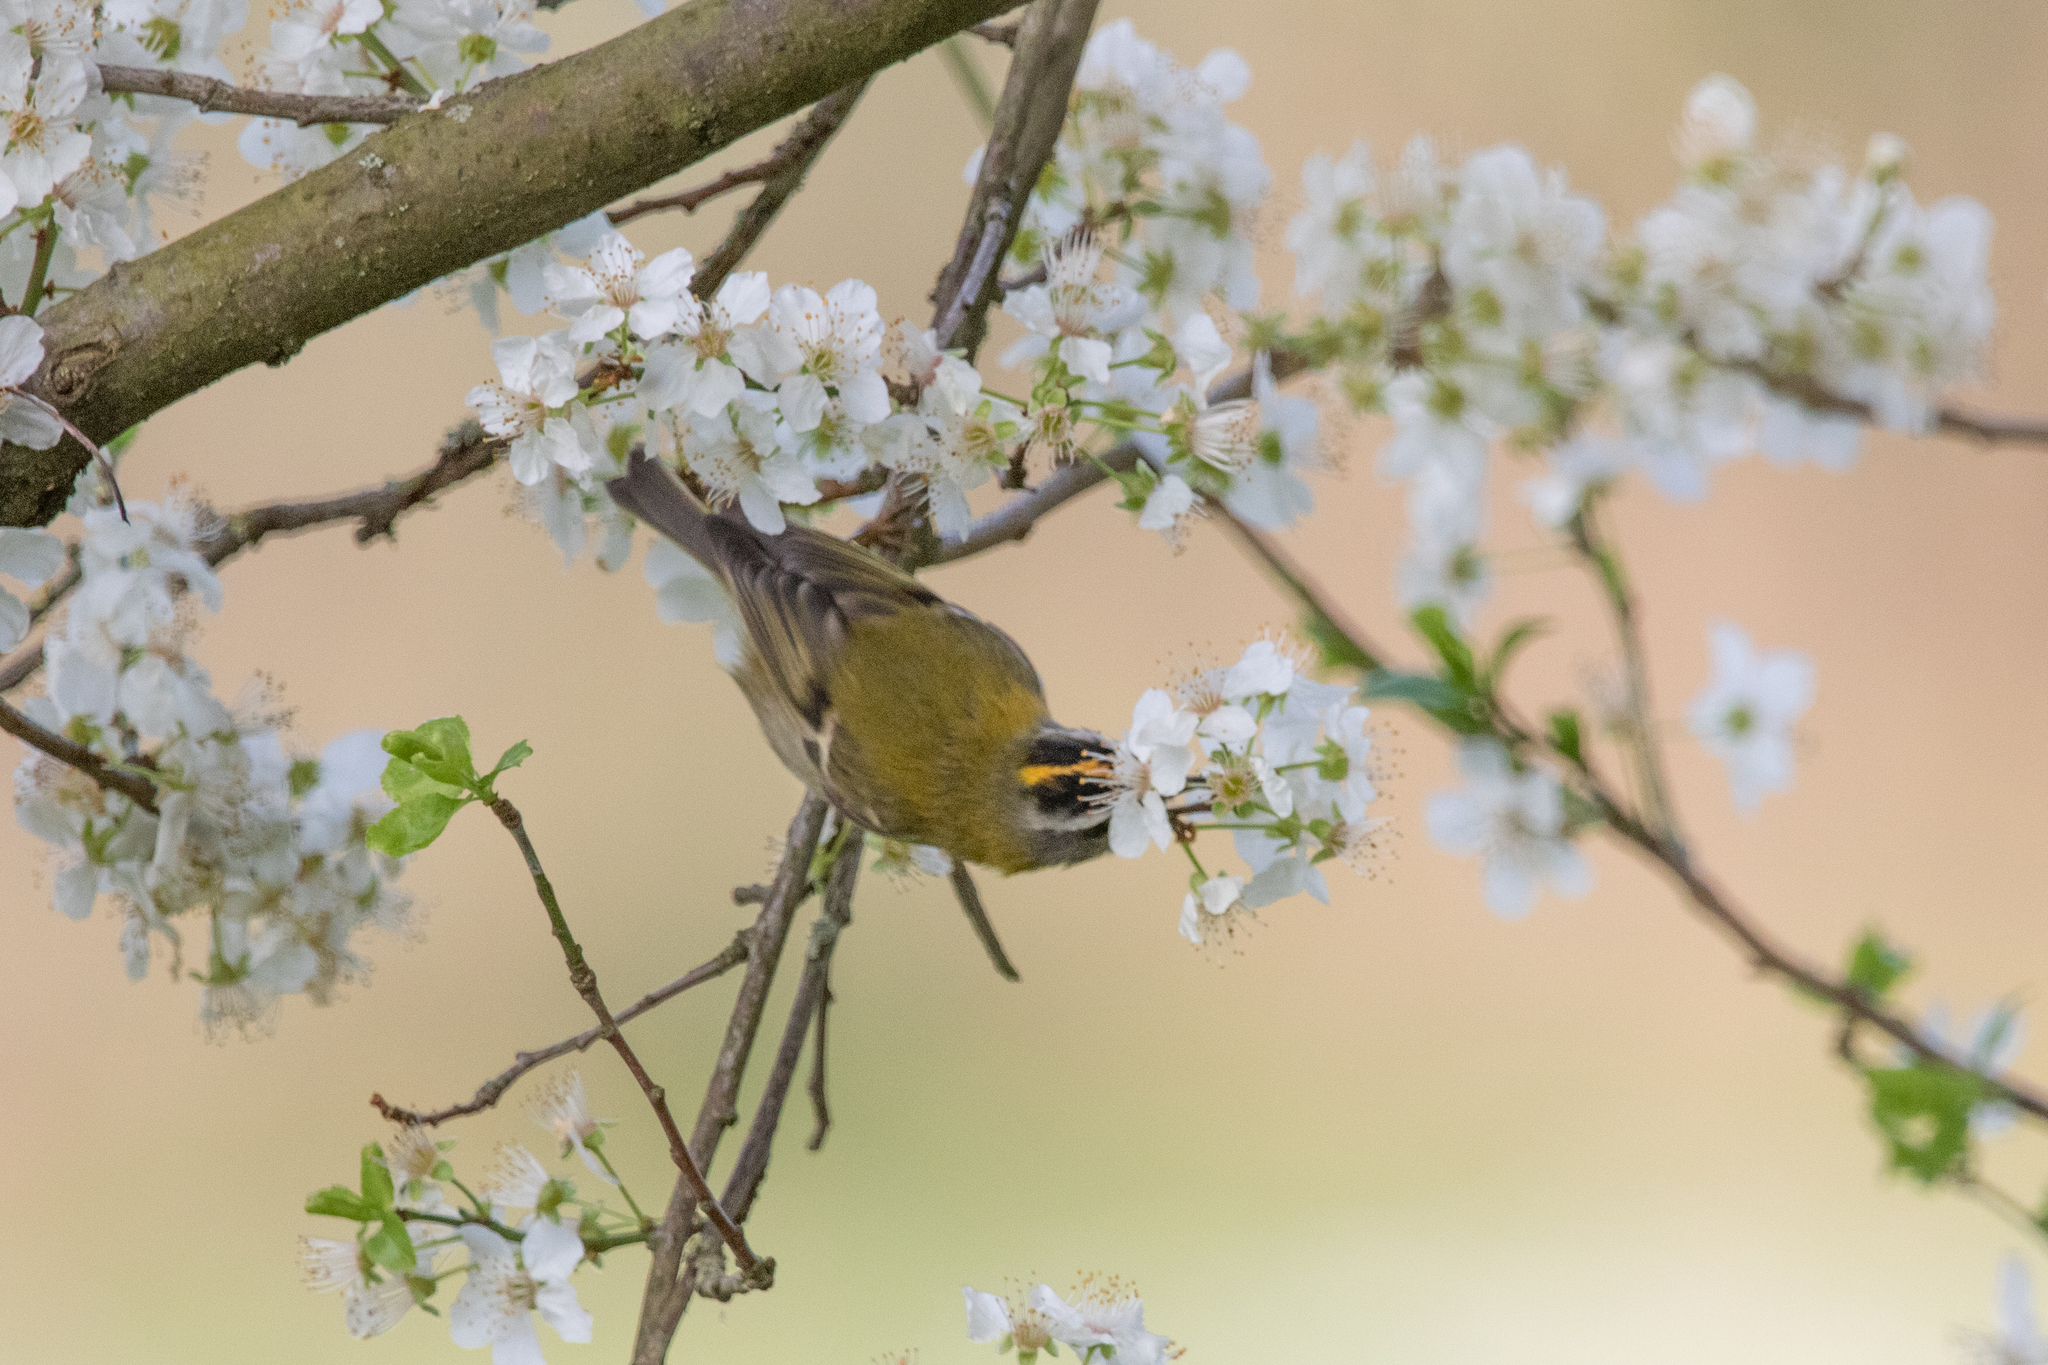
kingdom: Animalia
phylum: Chordata
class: Aves
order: Passeriformes
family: Regulidae
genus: Regulus
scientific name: Regulus ignicapilla
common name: Firecrest
